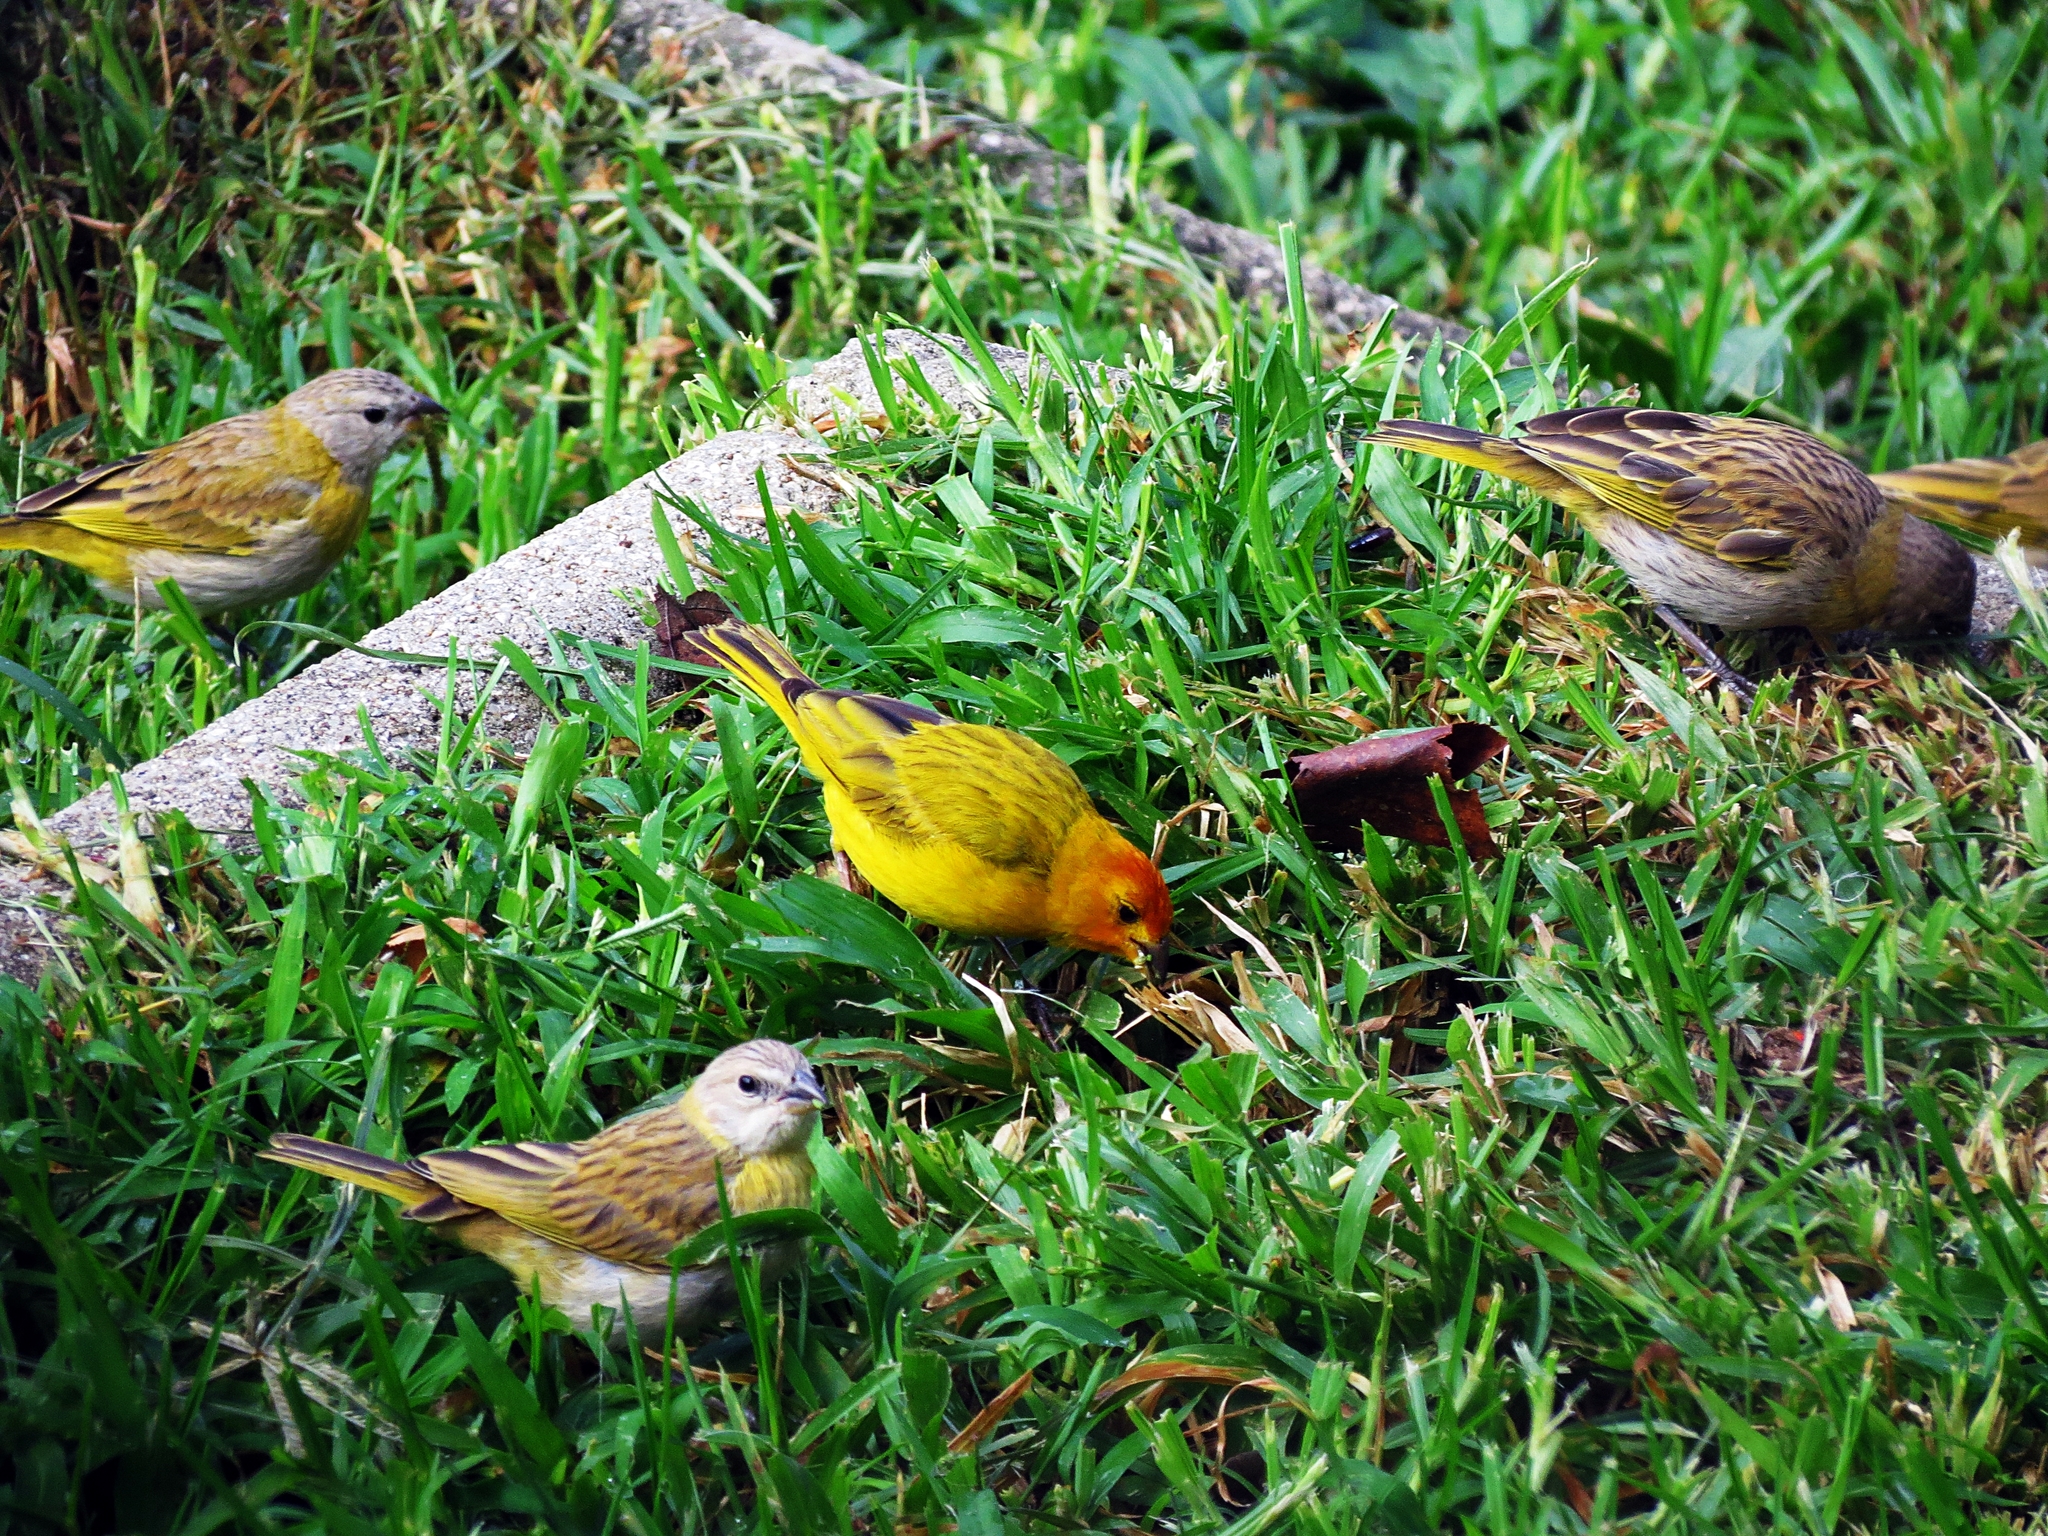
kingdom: Animalia
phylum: Chordata
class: Aves
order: Passeriformes
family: Thraupidae
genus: Sicalis
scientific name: Sicalis flaveola
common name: Saffron finch
